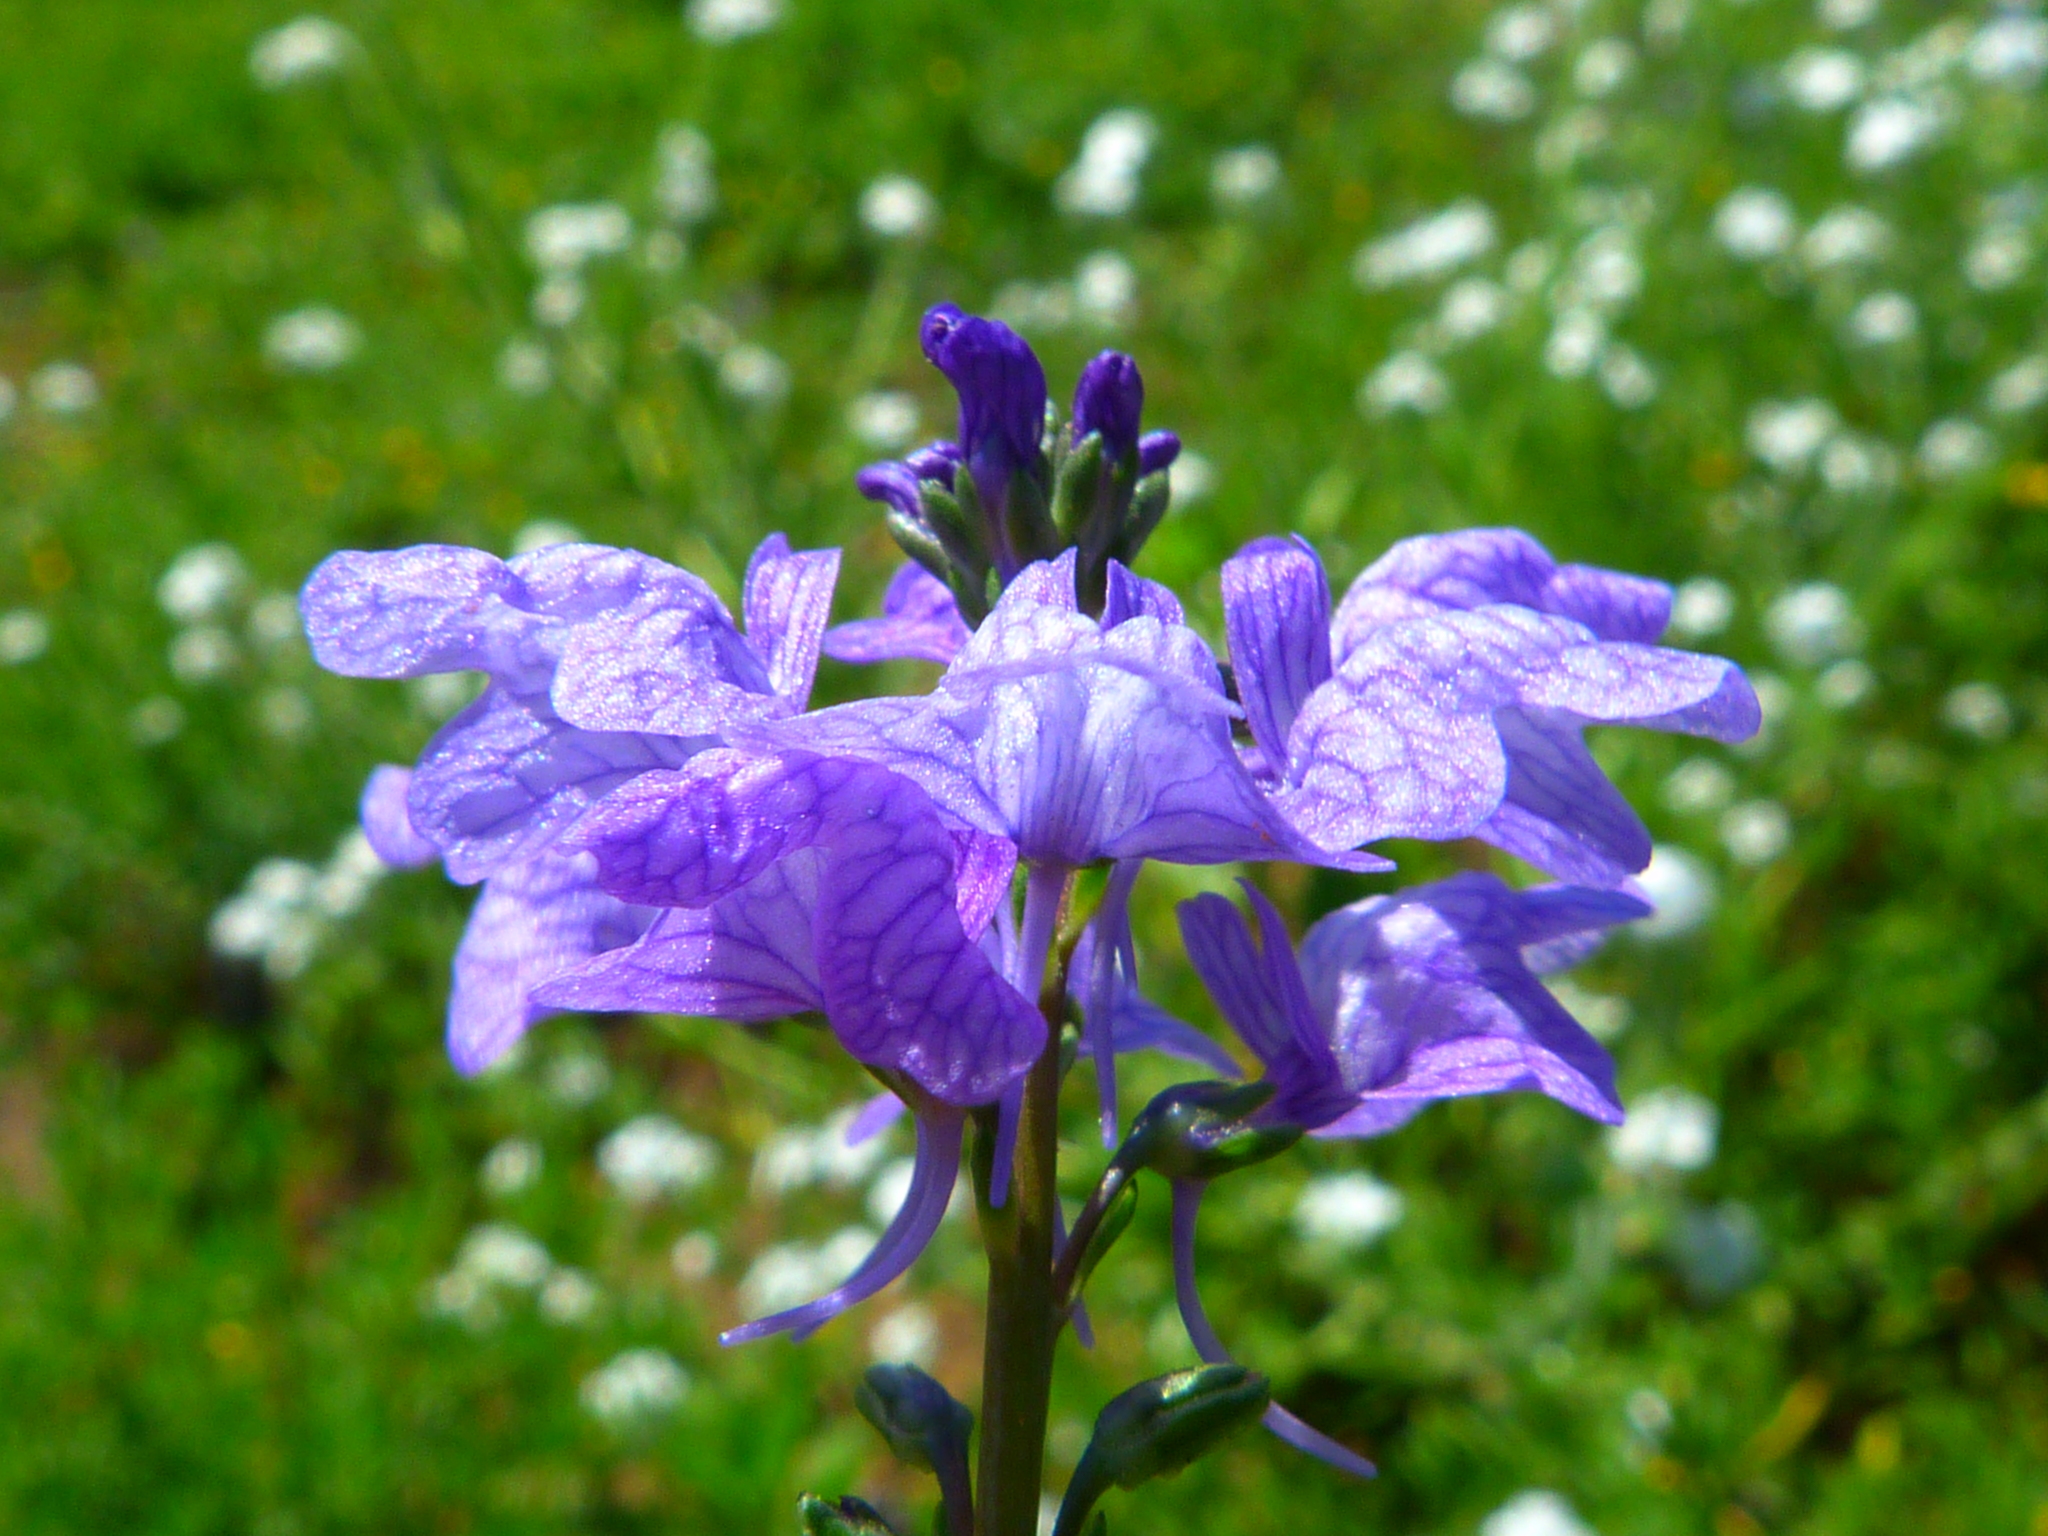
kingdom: Plantae
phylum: Tracheophyta
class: Magnoliopsida
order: Lamiales
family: Plantaginaceae
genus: Nuttallanthus
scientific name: Nuttallanthus texanus
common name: Texas toadflax
